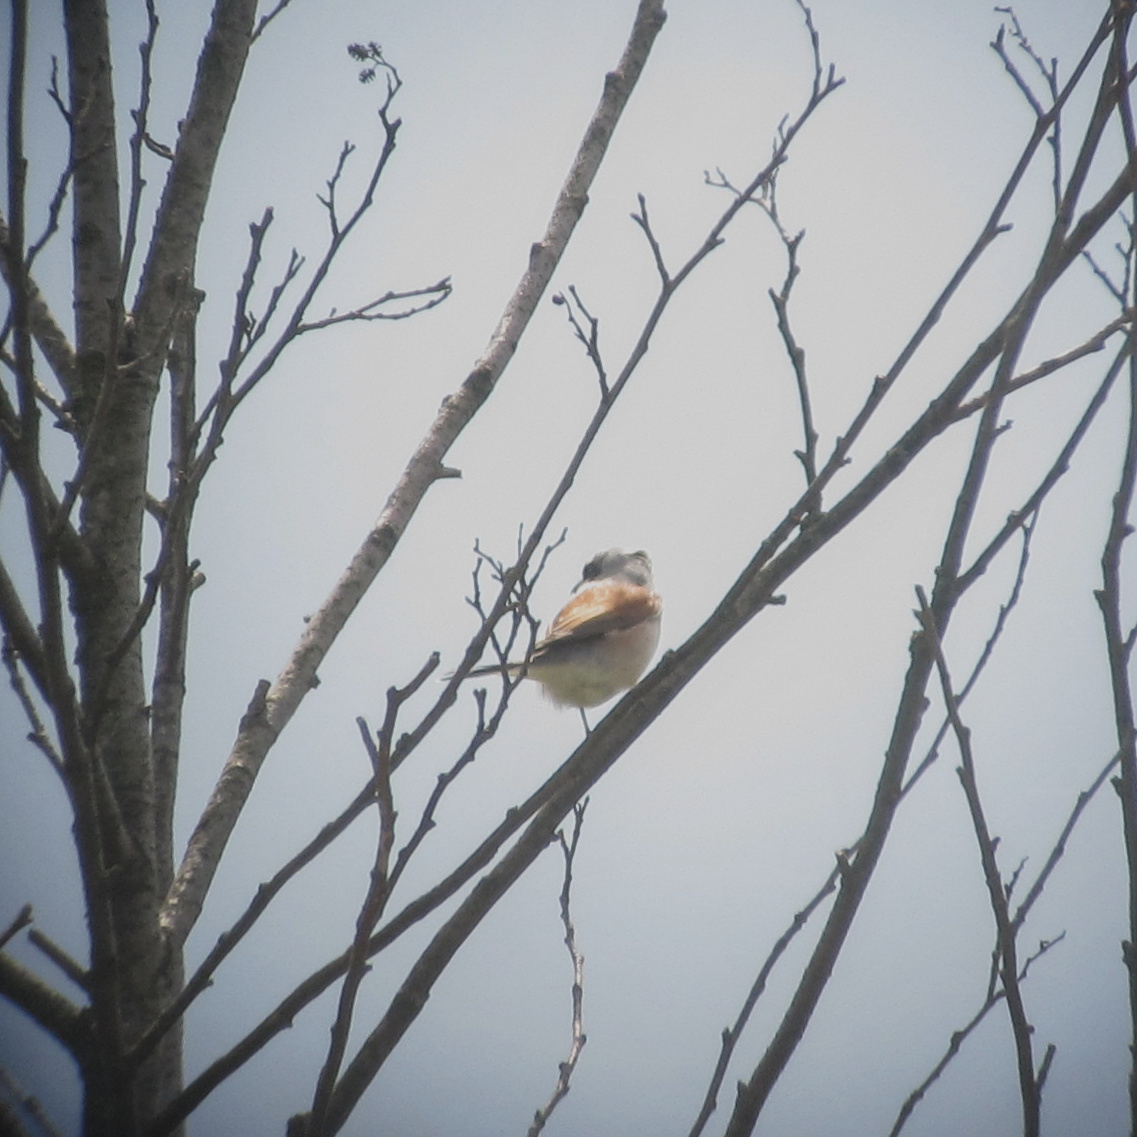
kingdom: Animalia
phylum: Chordata
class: Aves
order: Passeriformes
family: Laniidae
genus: Lanius
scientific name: Lanius collurio
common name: Red-backed shrike
